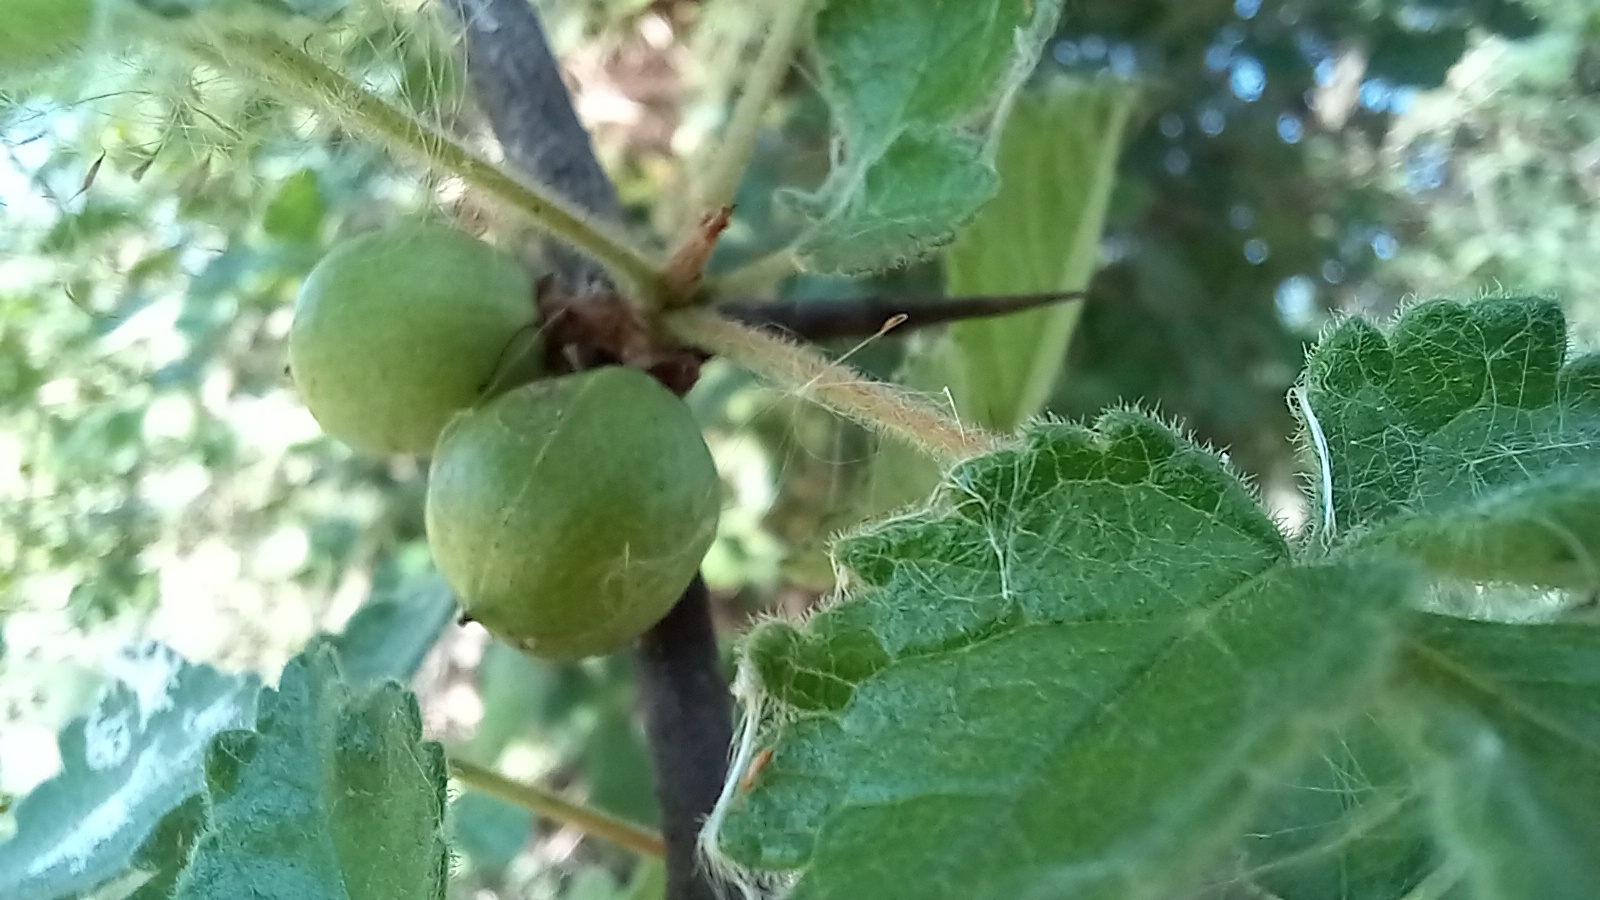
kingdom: Plantae
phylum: Tracheophyta
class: Magnoliopsida
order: Sapindales
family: Burseraceae
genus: Commiphora
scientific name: Commiphora africana
